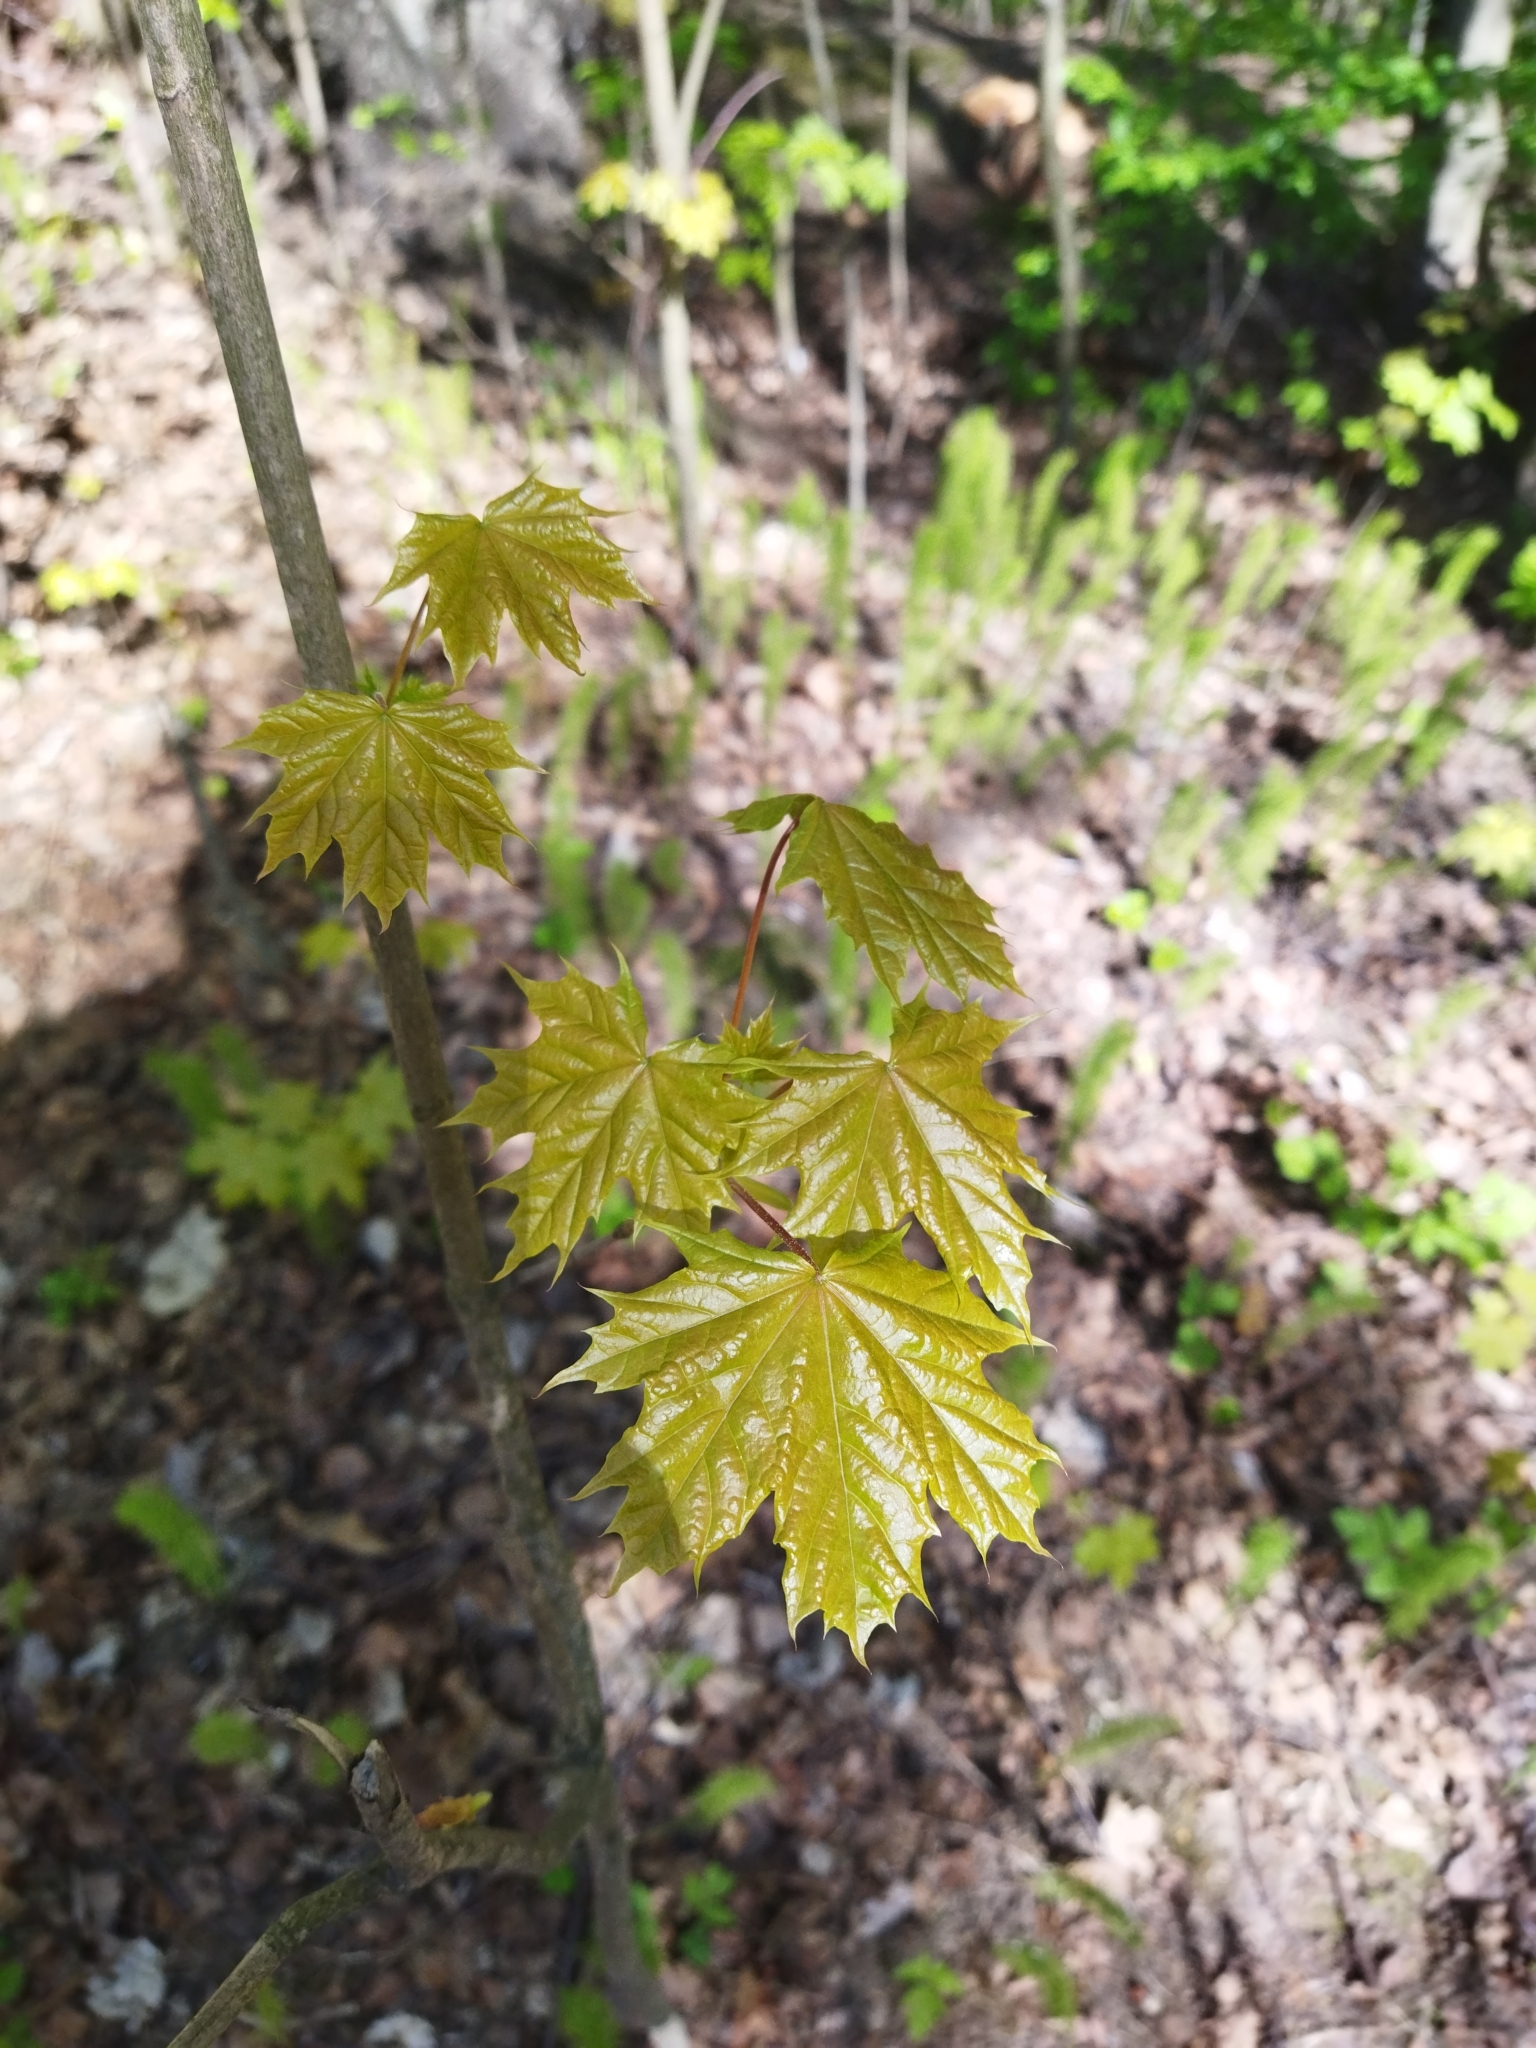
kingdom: Plantae
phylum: Tracheophyta
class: Magnoliopsida
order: Sapindales
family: Sapindaceae
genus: Acer
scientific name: Acer platanoides
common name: Norway maple
